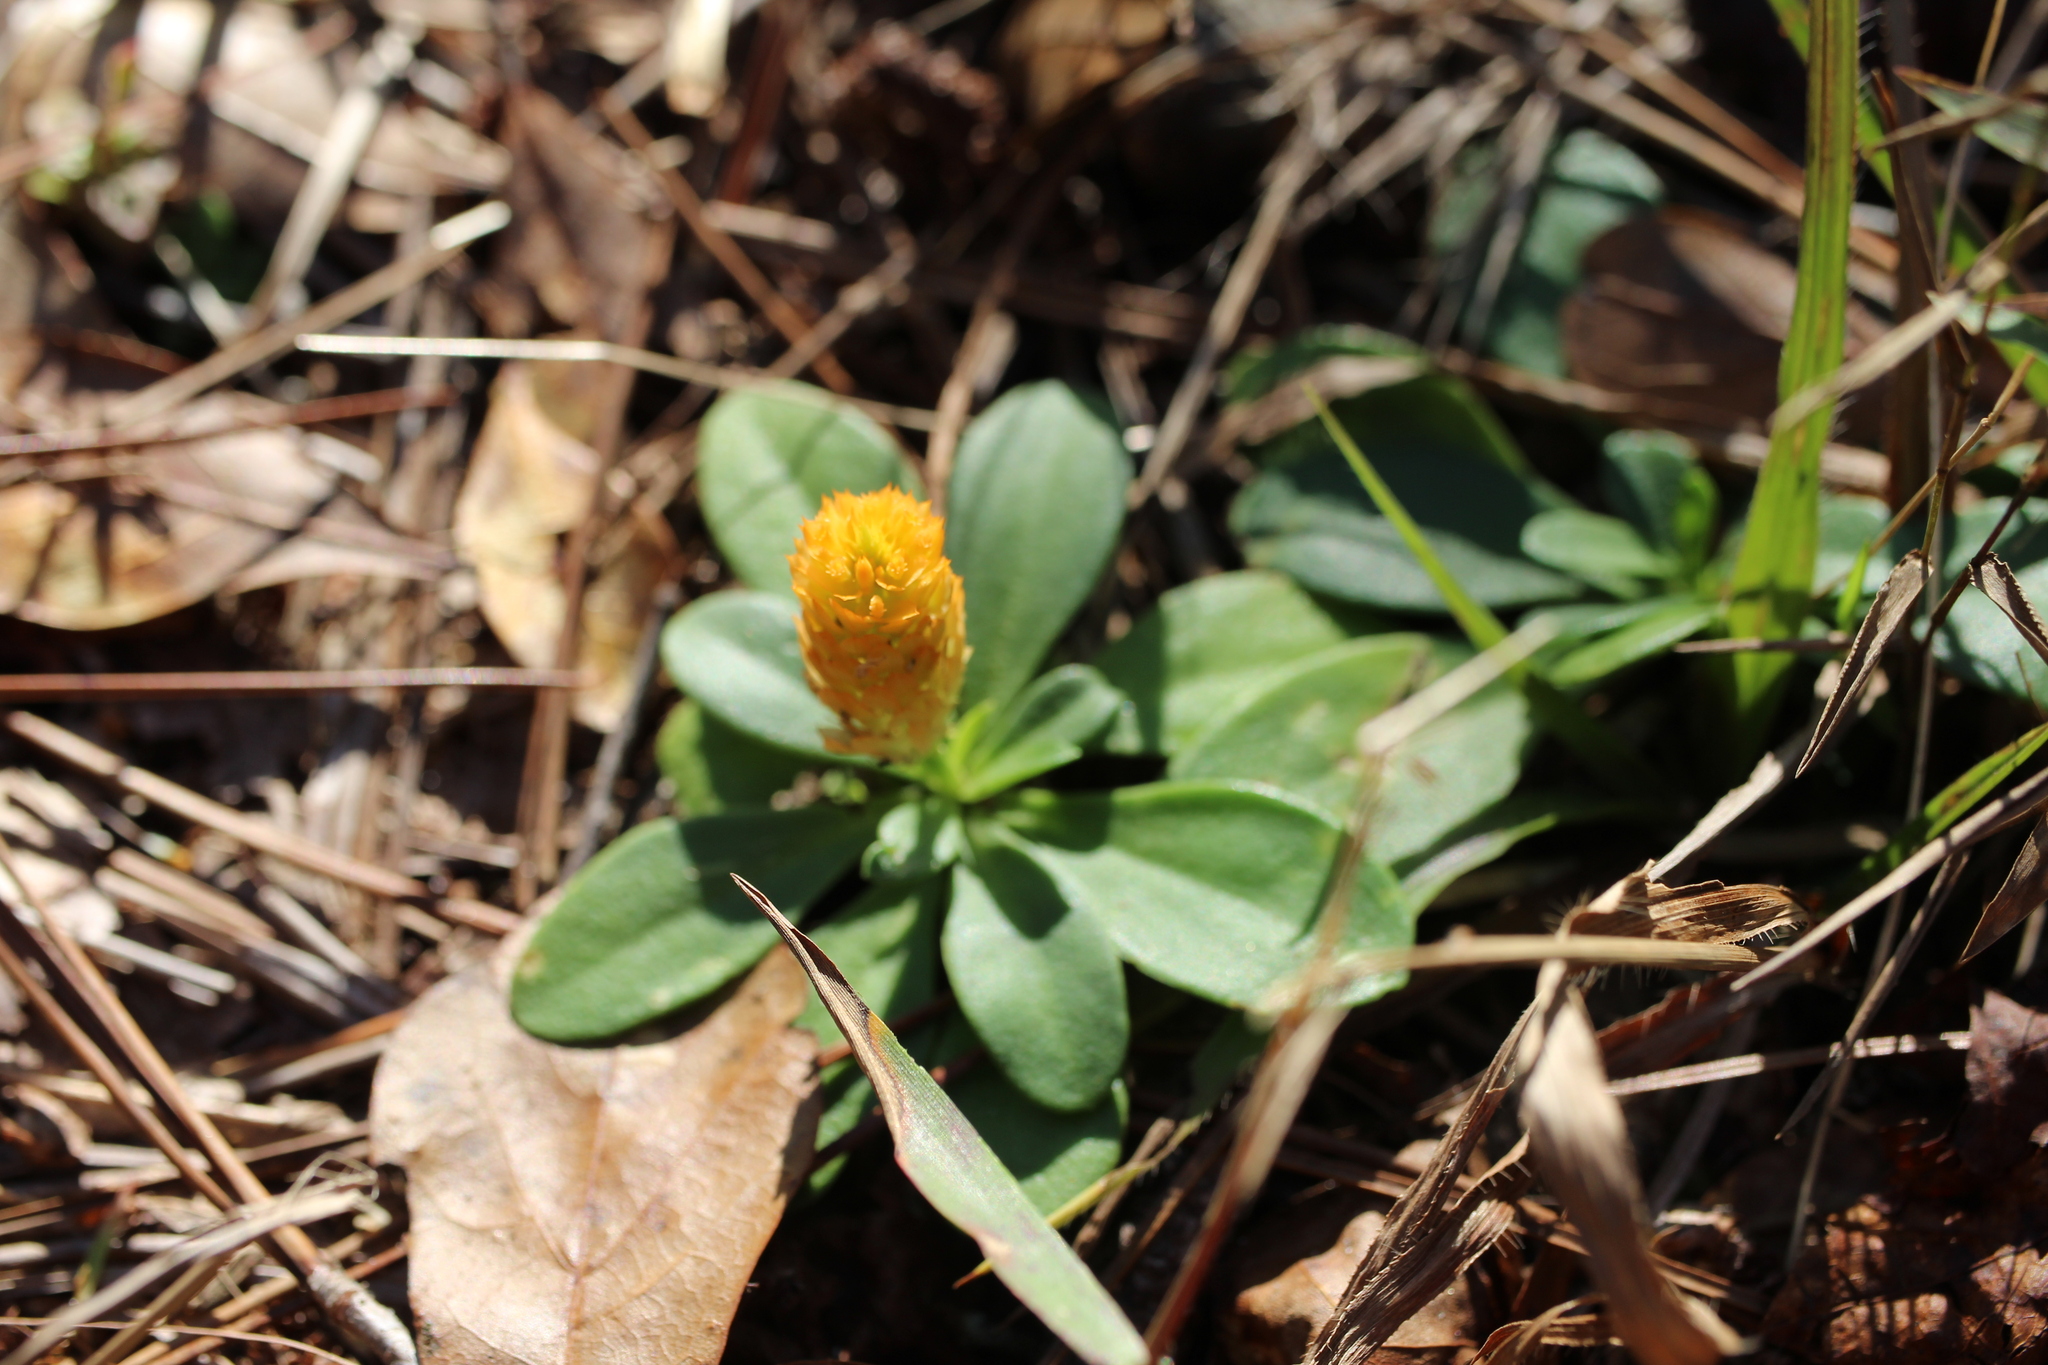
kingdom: Plantae
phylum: Tracheophyta
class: Magnoliopsida
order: Fabales
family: Polygalaceae
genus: Polygala
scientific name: Polygala lutea
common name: Orange milkwort
